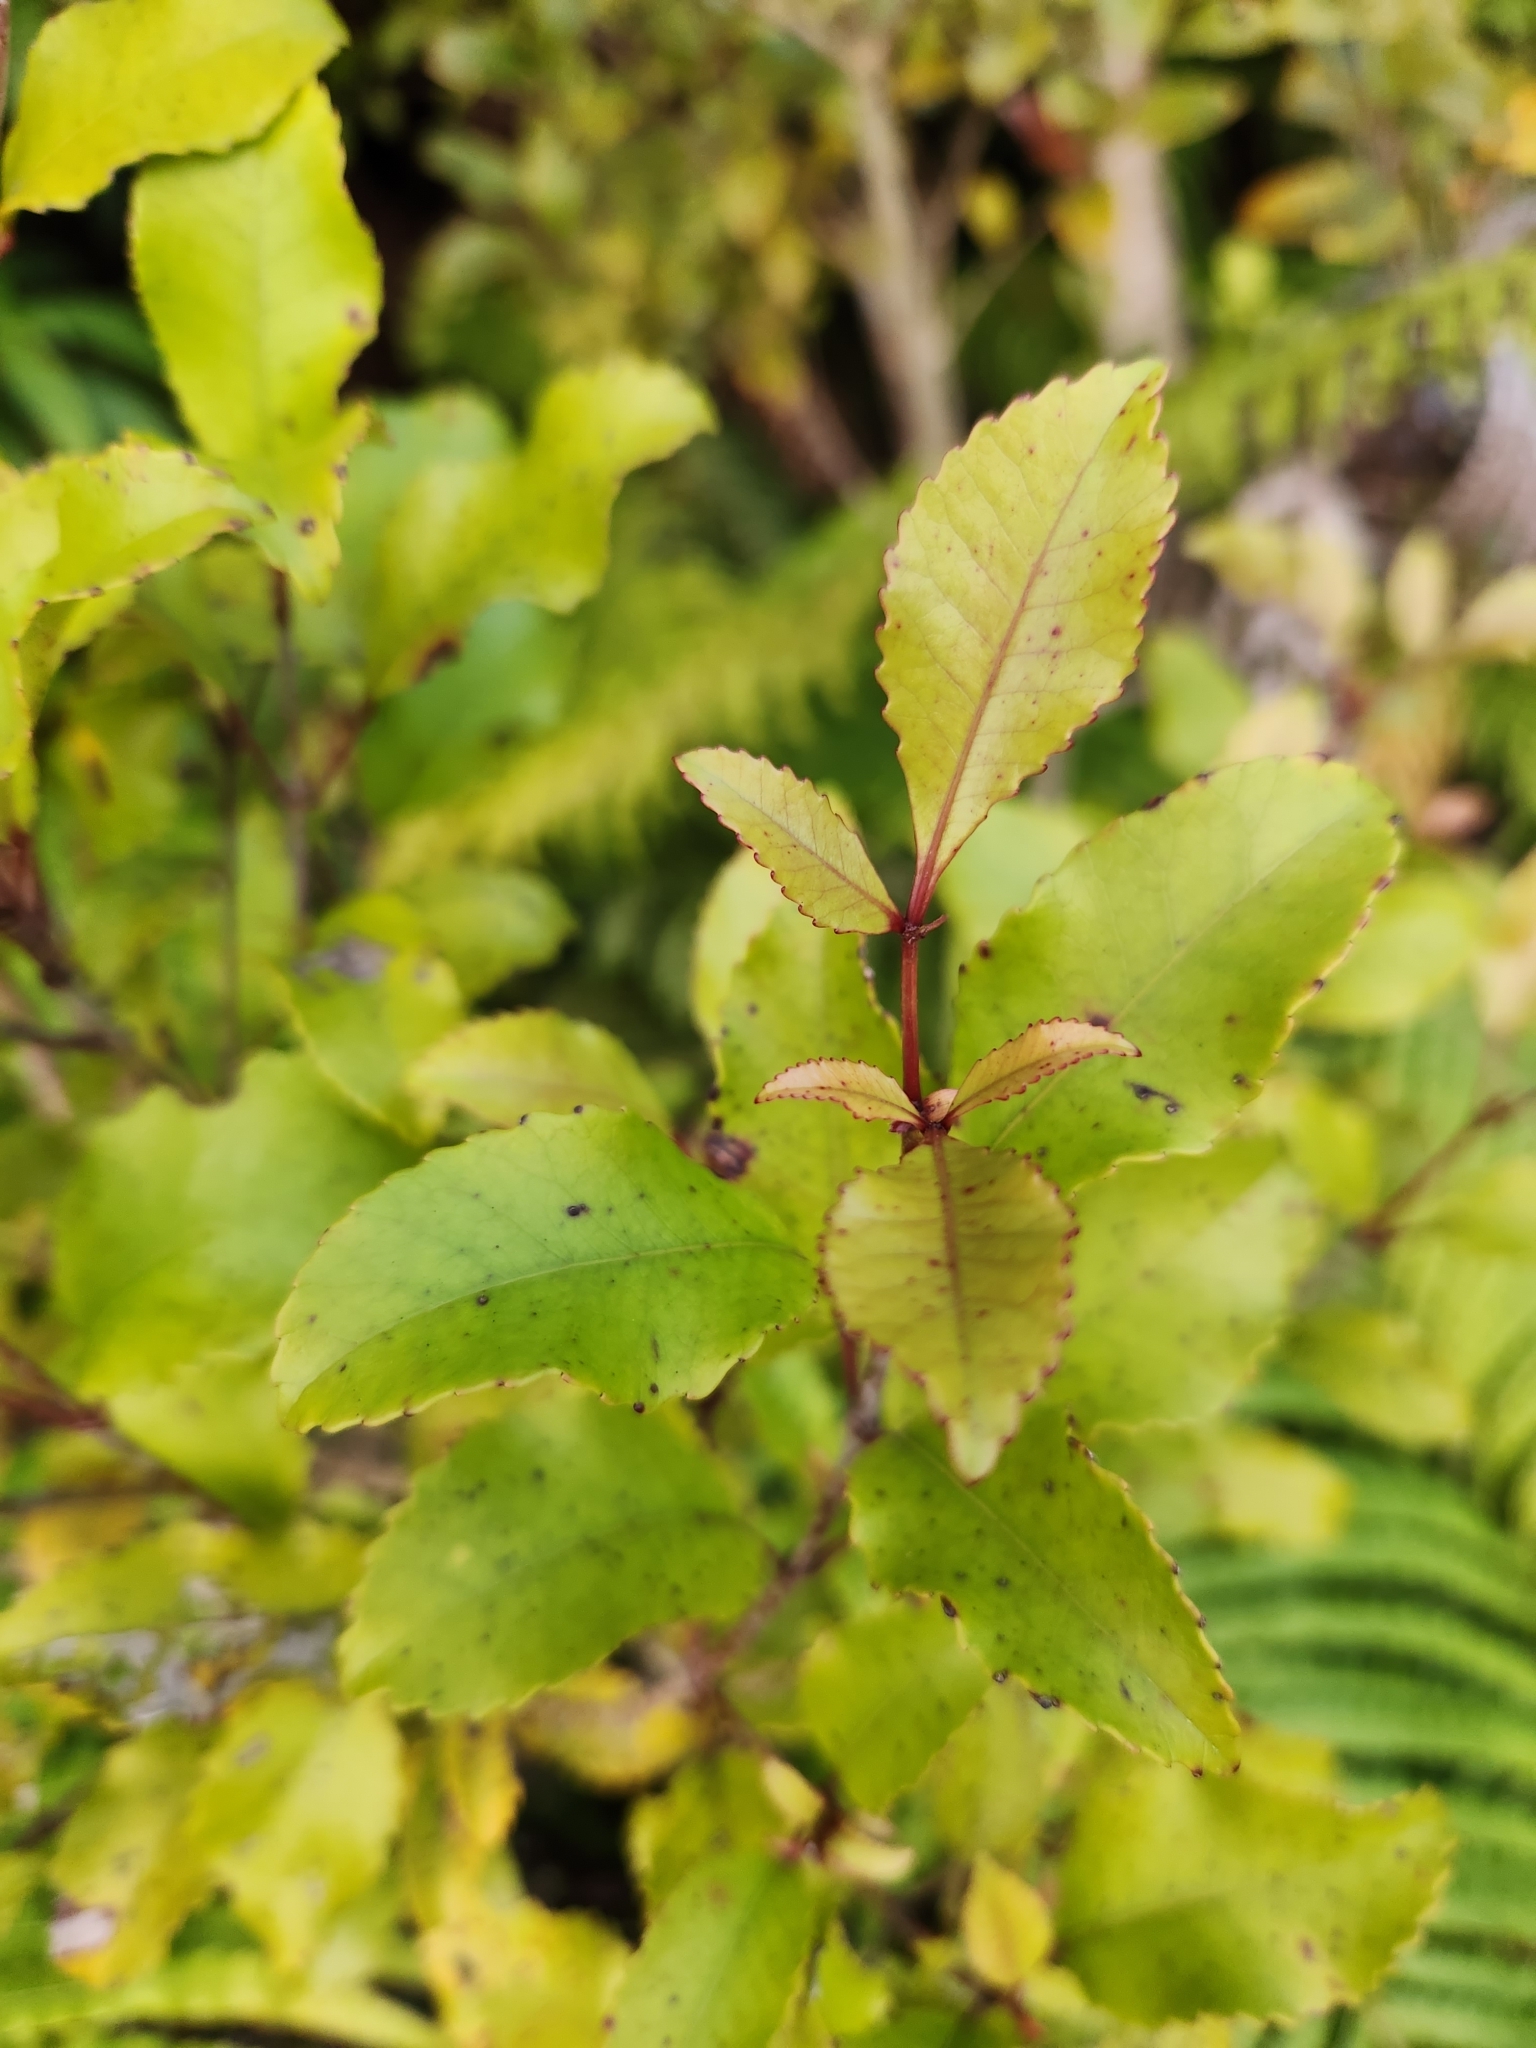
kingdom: Plantae
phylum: Tracheophyta
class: Magnoliopsida
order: Oxalidales
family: Cunoniaceae
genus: Pterophylla
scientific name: Pterophylla racemosa
